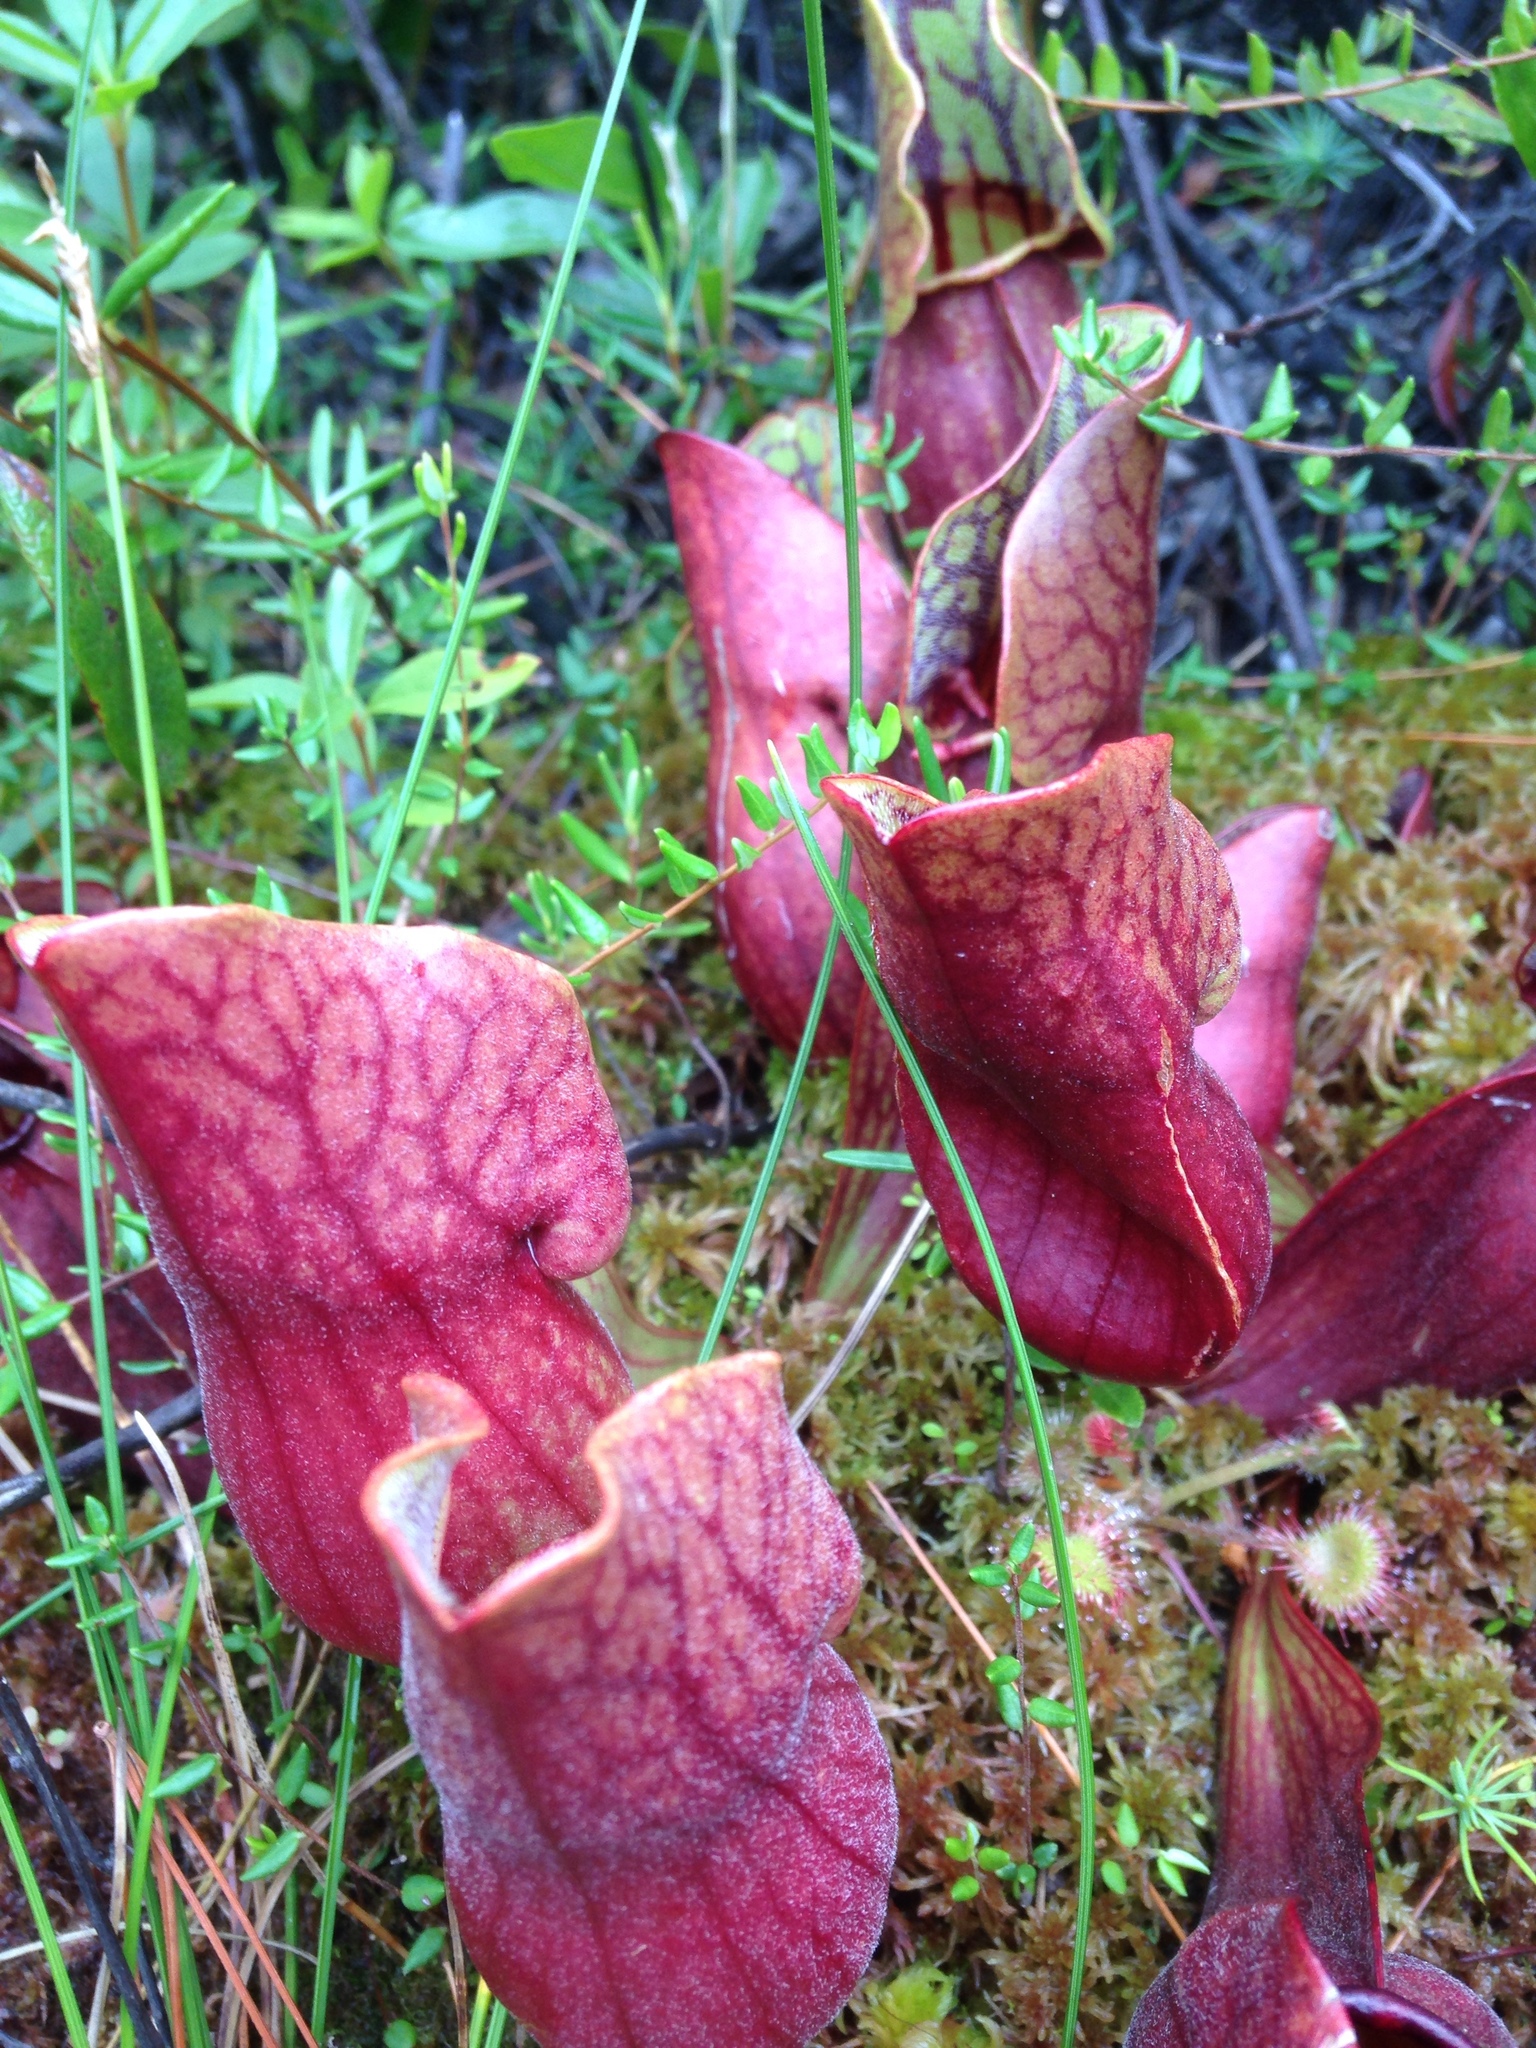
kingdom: Plantae
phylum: Tracheophyta
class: Magnoliopsida
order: Ericales
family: Sarraceniaceae
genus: Sarracenia
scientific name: Sarracenia purpurea
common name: Pitcherplant
